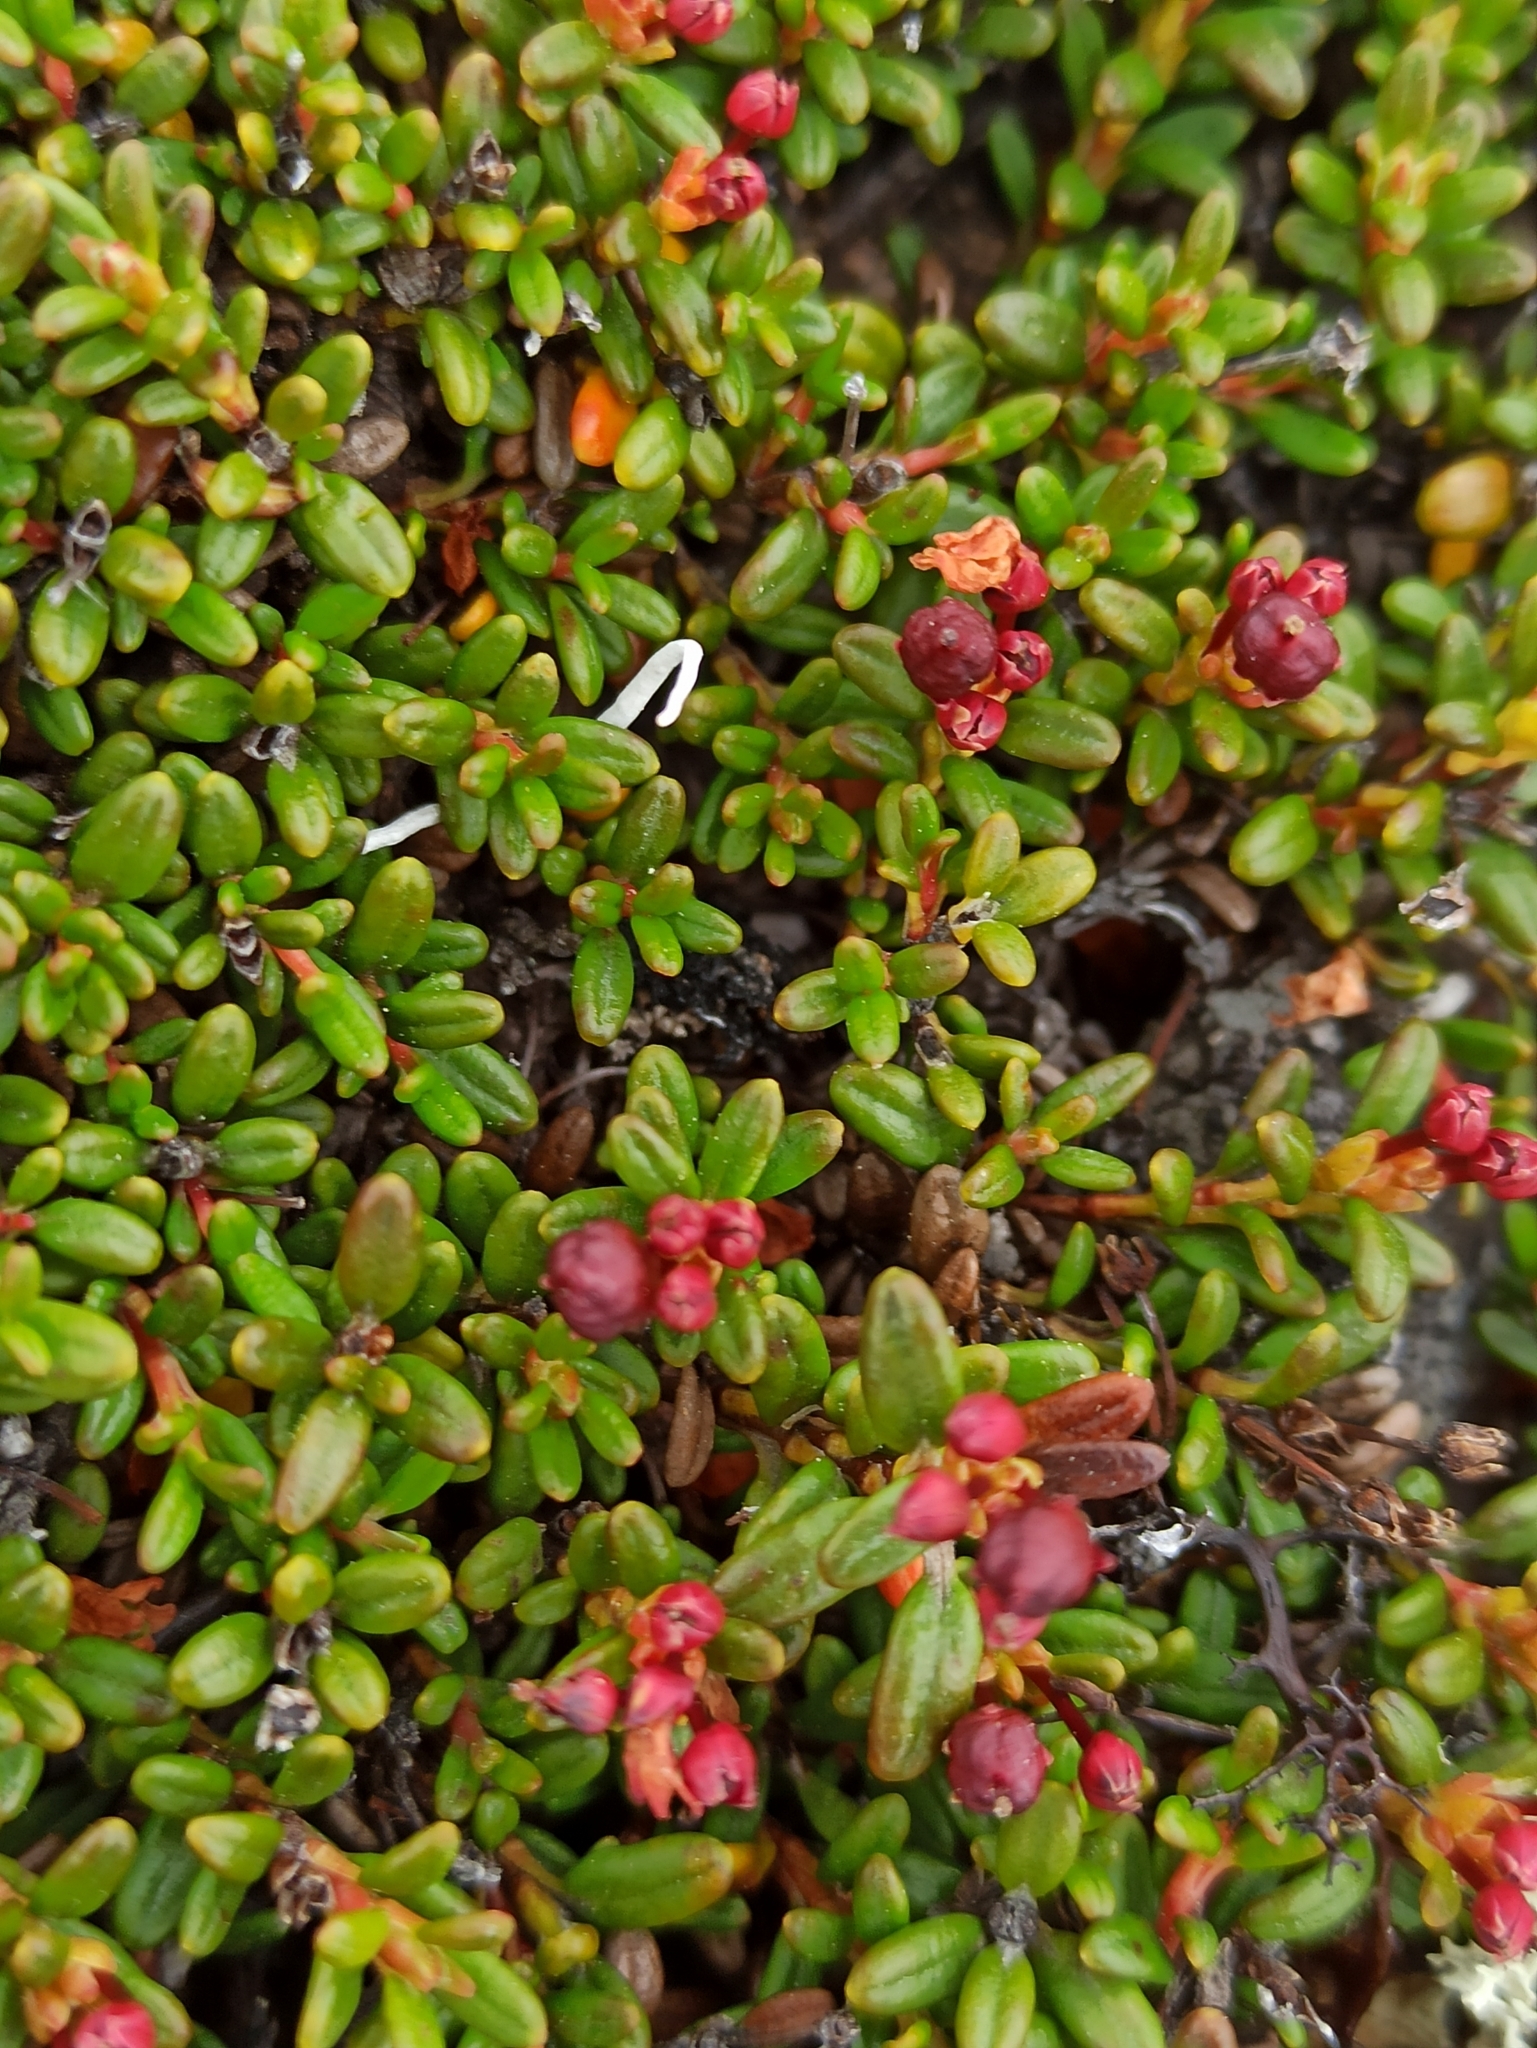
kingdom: Plantae
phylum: Tracheophyta
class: Magnoliopsida
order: Ericales
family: Ericaceae
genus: Kalmia
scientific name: Kalmia procumbens
